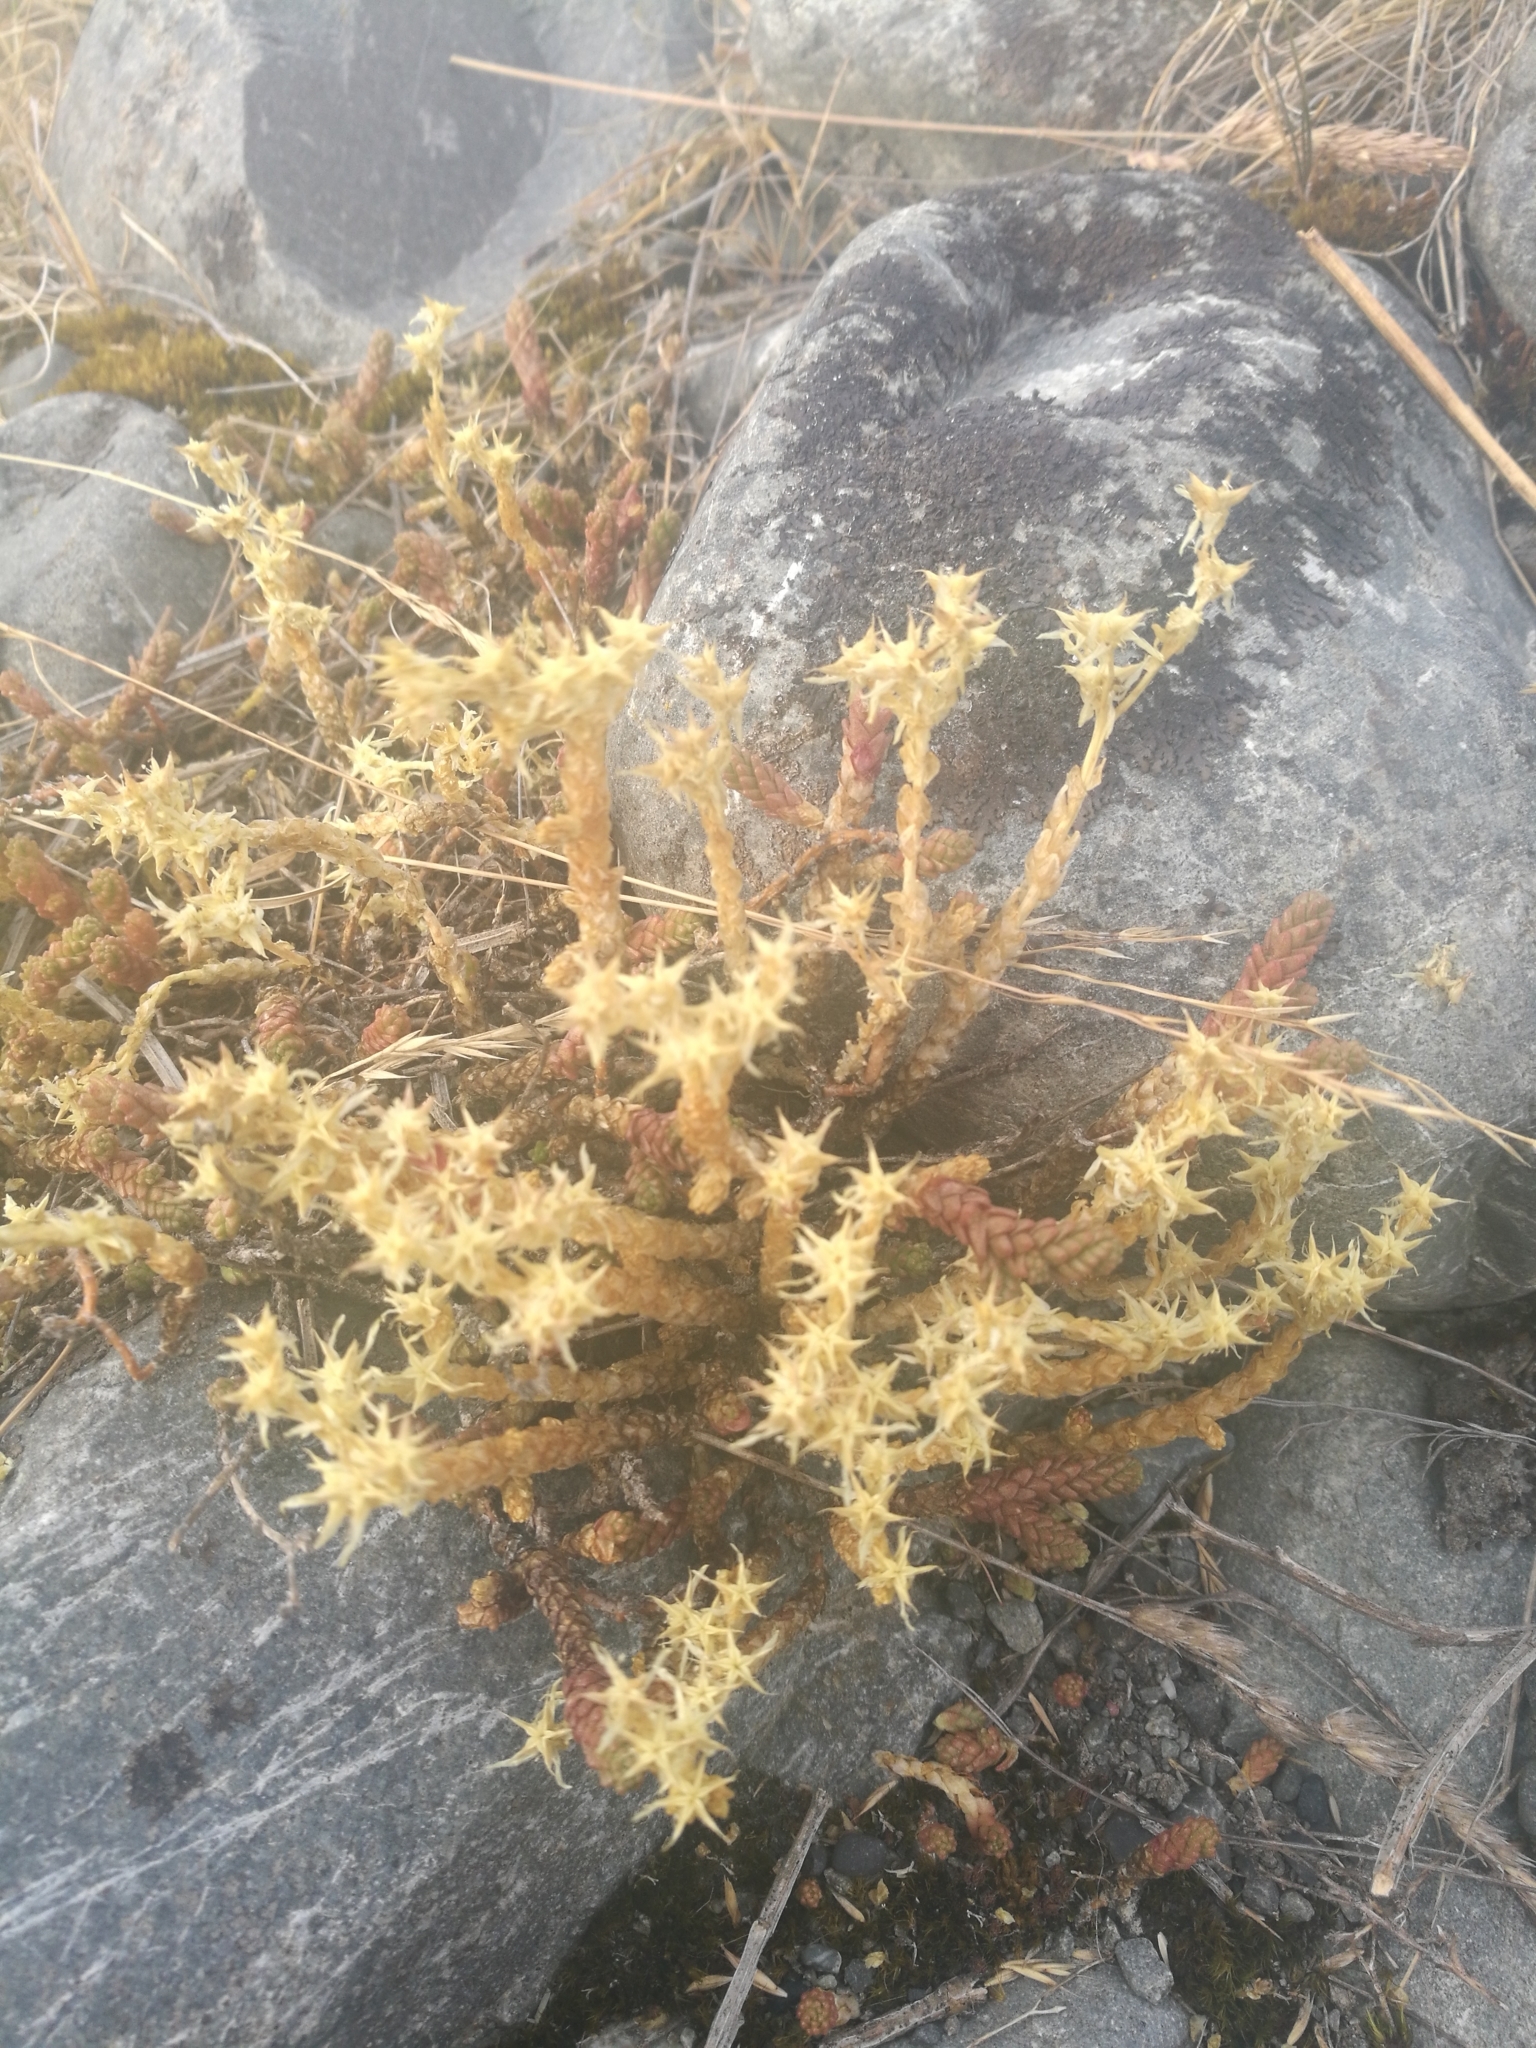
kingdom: Plantae
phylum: Tracheophyta
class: Magnoliopsida
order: Saxifragales
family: Crassulaceae
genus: Sedum
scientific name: Sedum acre
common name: Biting stonecrop
